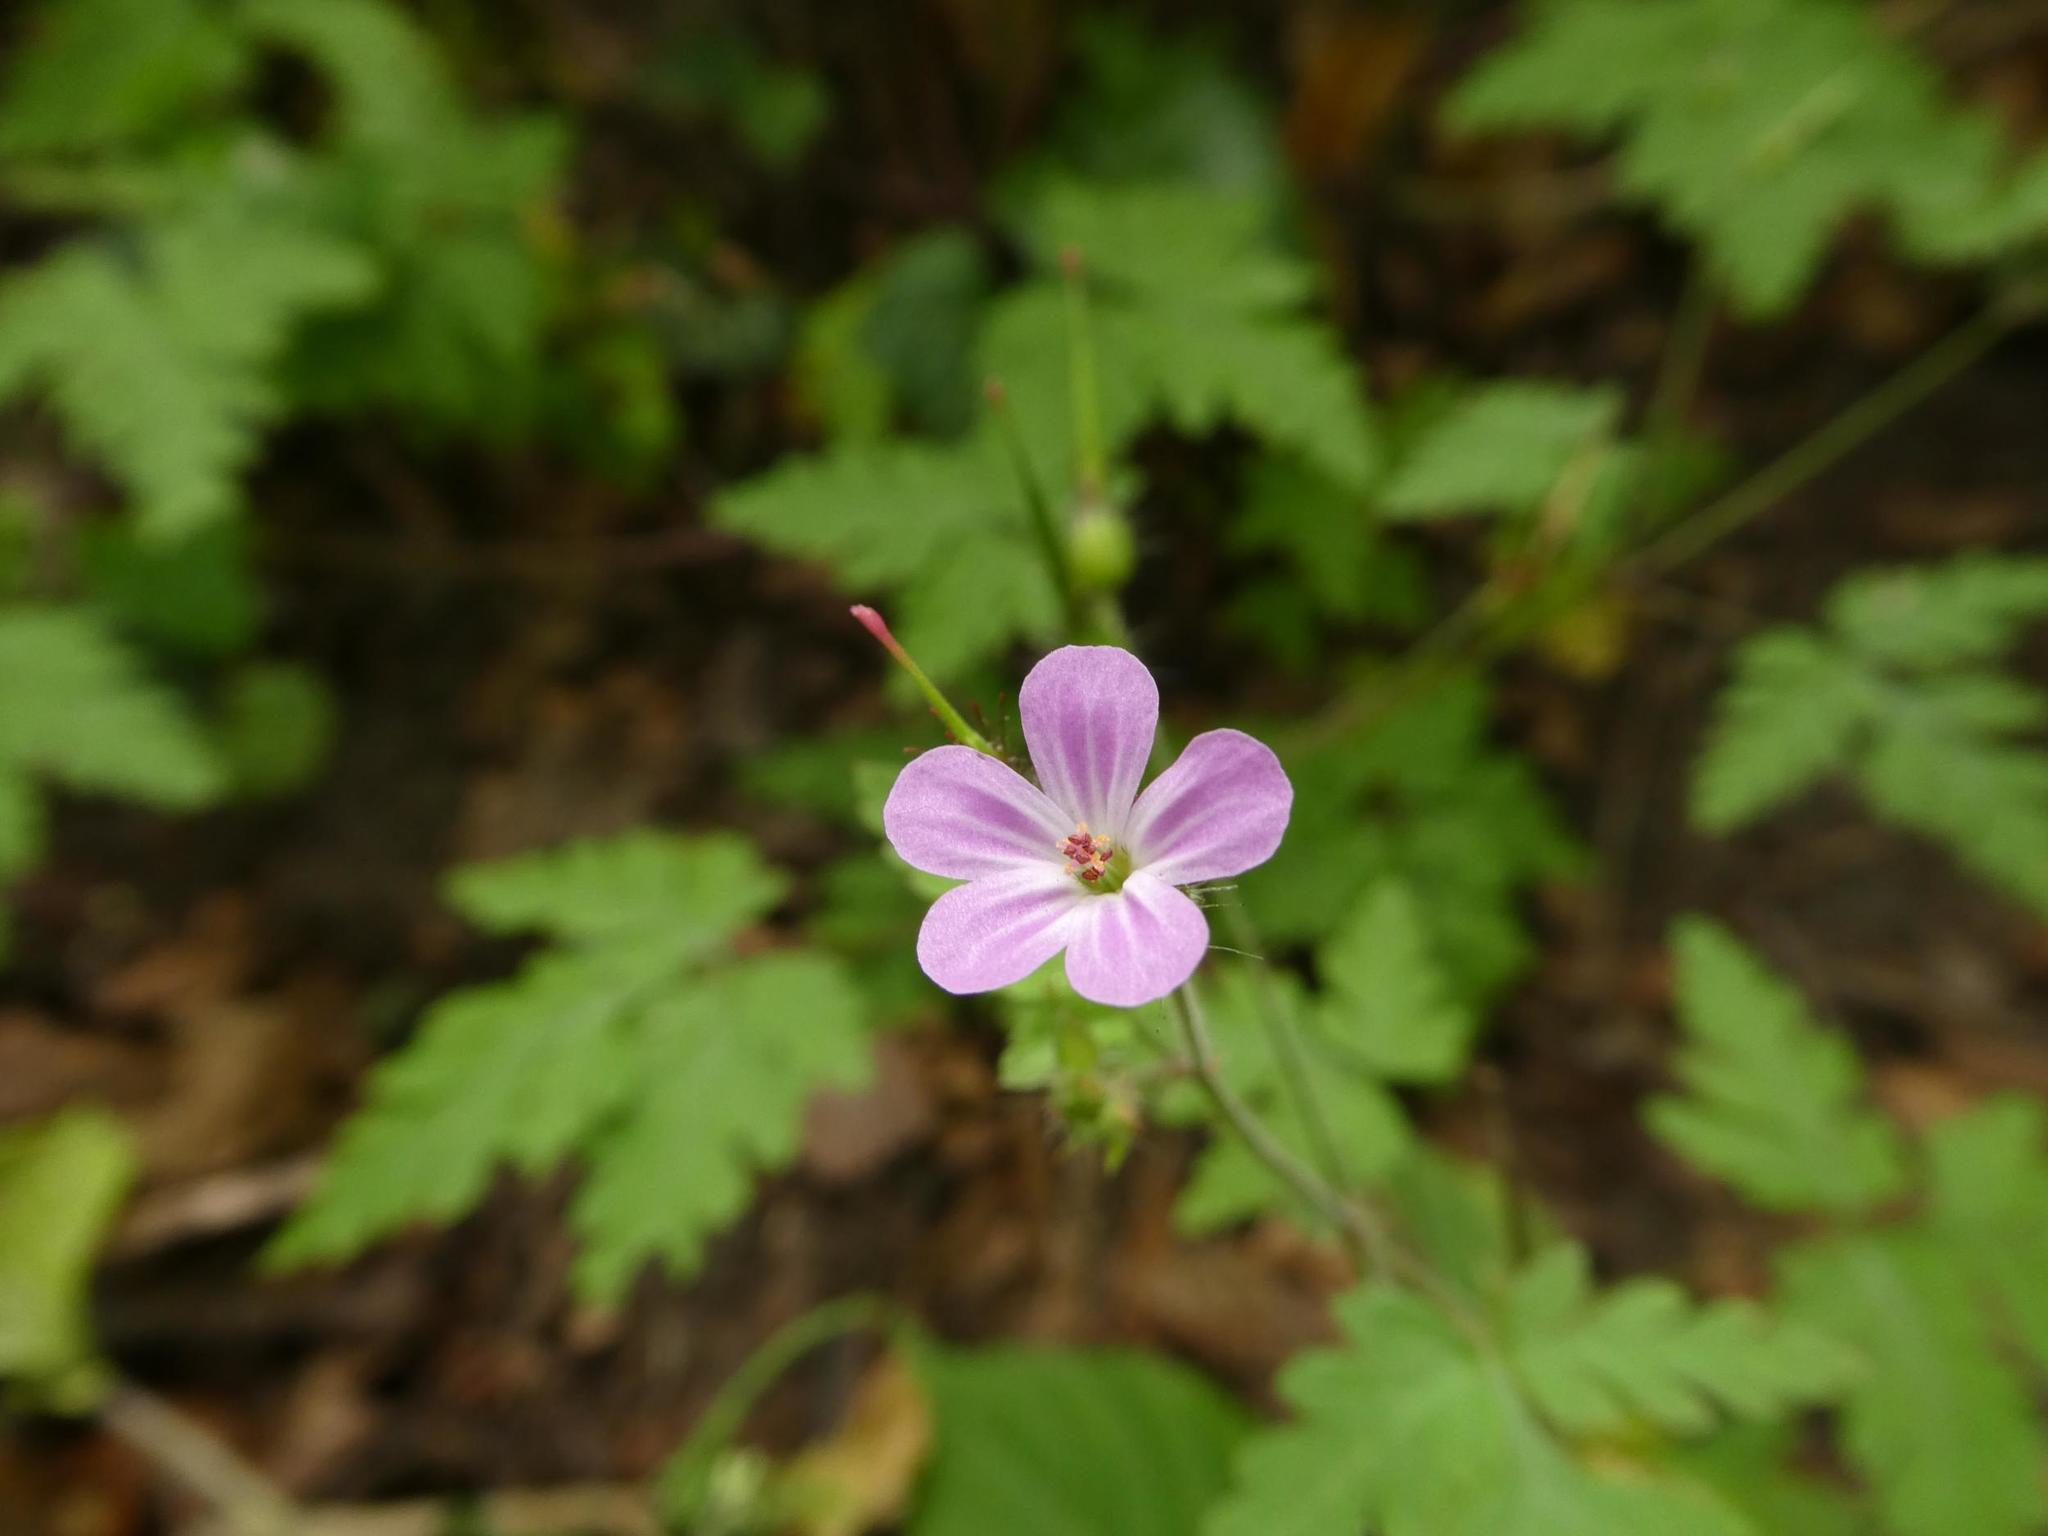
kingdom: Plantae
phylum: Tracheophyta
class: Magnoliopsida
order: Geraniales
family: Geraniaceae
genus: Geranium
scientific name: Geranium robertianum
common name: Herb-robert
